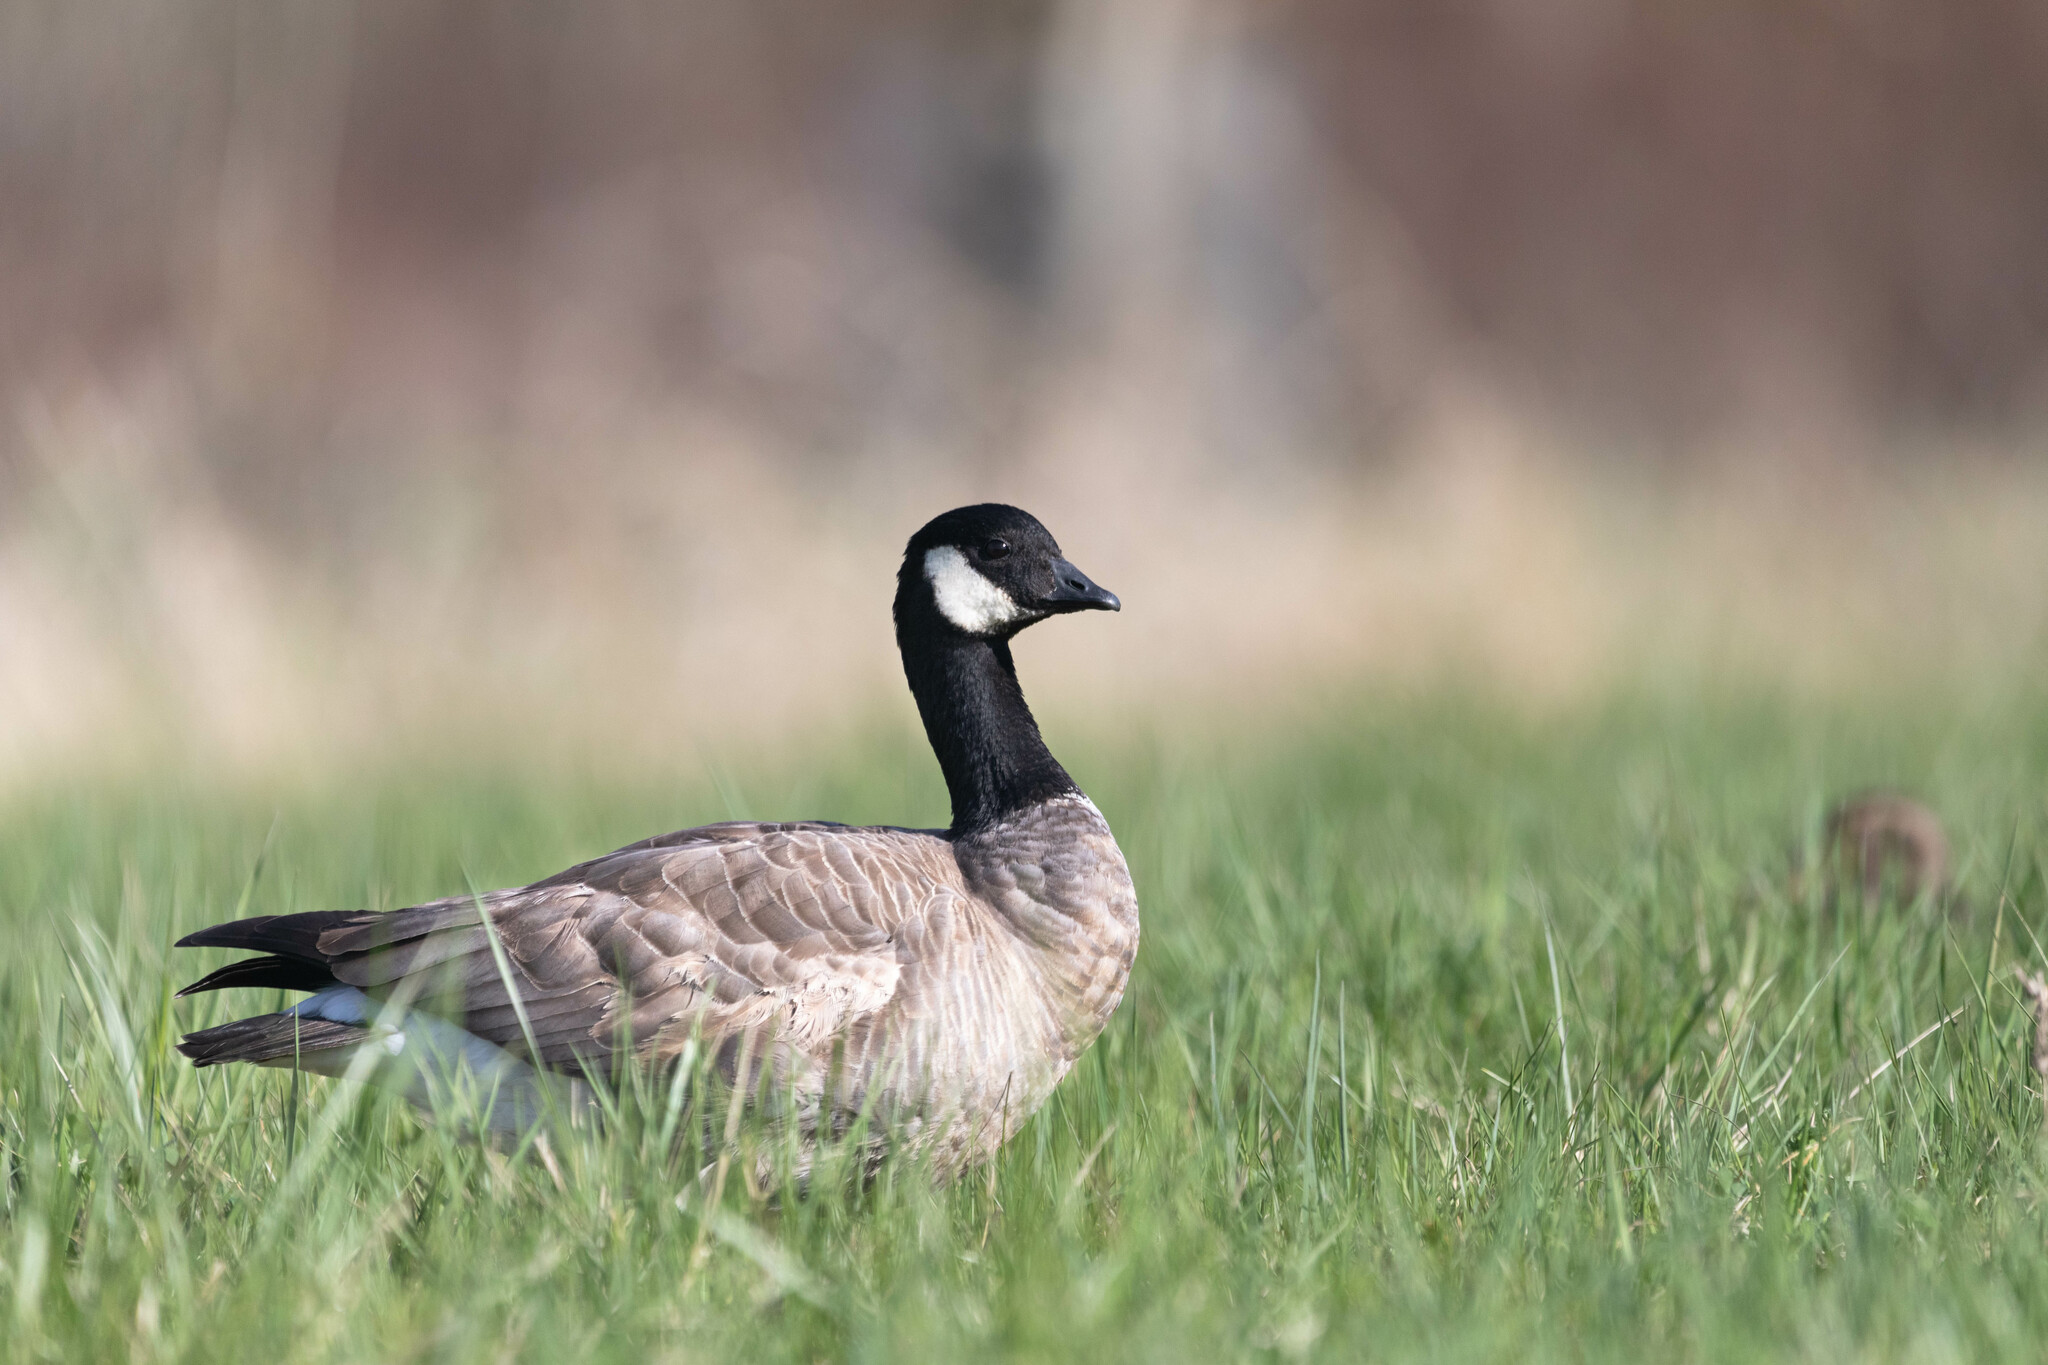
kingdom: Animalia
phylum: Chordata
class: Aves
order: Anseriformes
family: Anatidae
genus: Branta
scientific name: Branta hutchinsii
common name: Cackling goose
